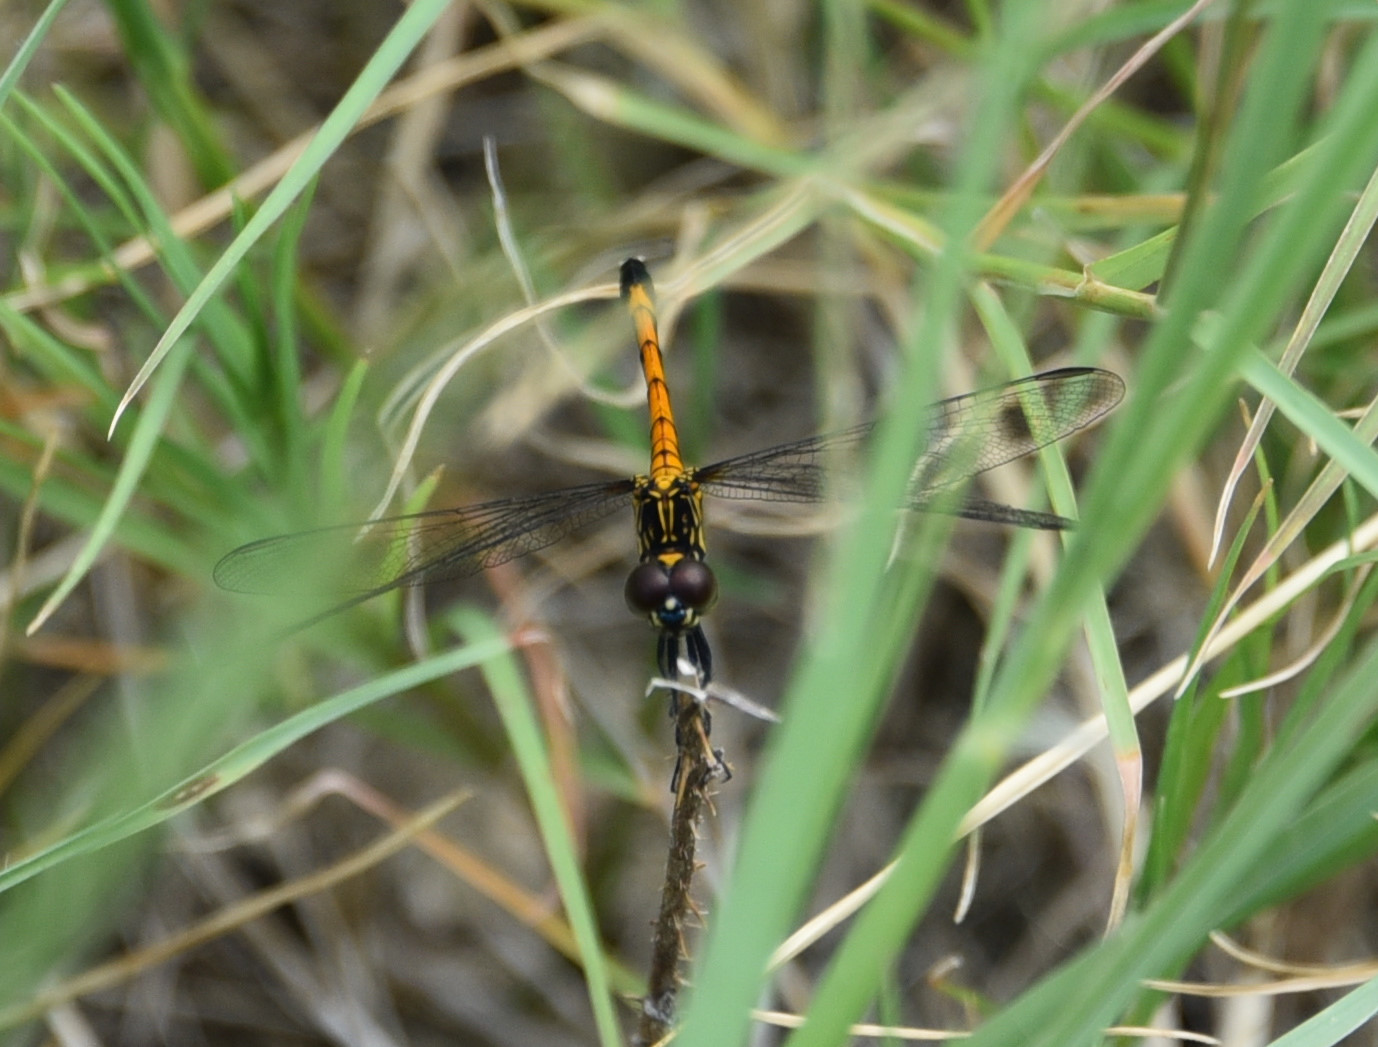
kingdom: Animalia
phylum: Arthropoda
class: Insecta
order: Odonata
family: Libellulidae
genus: Erythrodiplax
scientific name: Erythrodiplax berenice
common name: Seaside dragonlet
